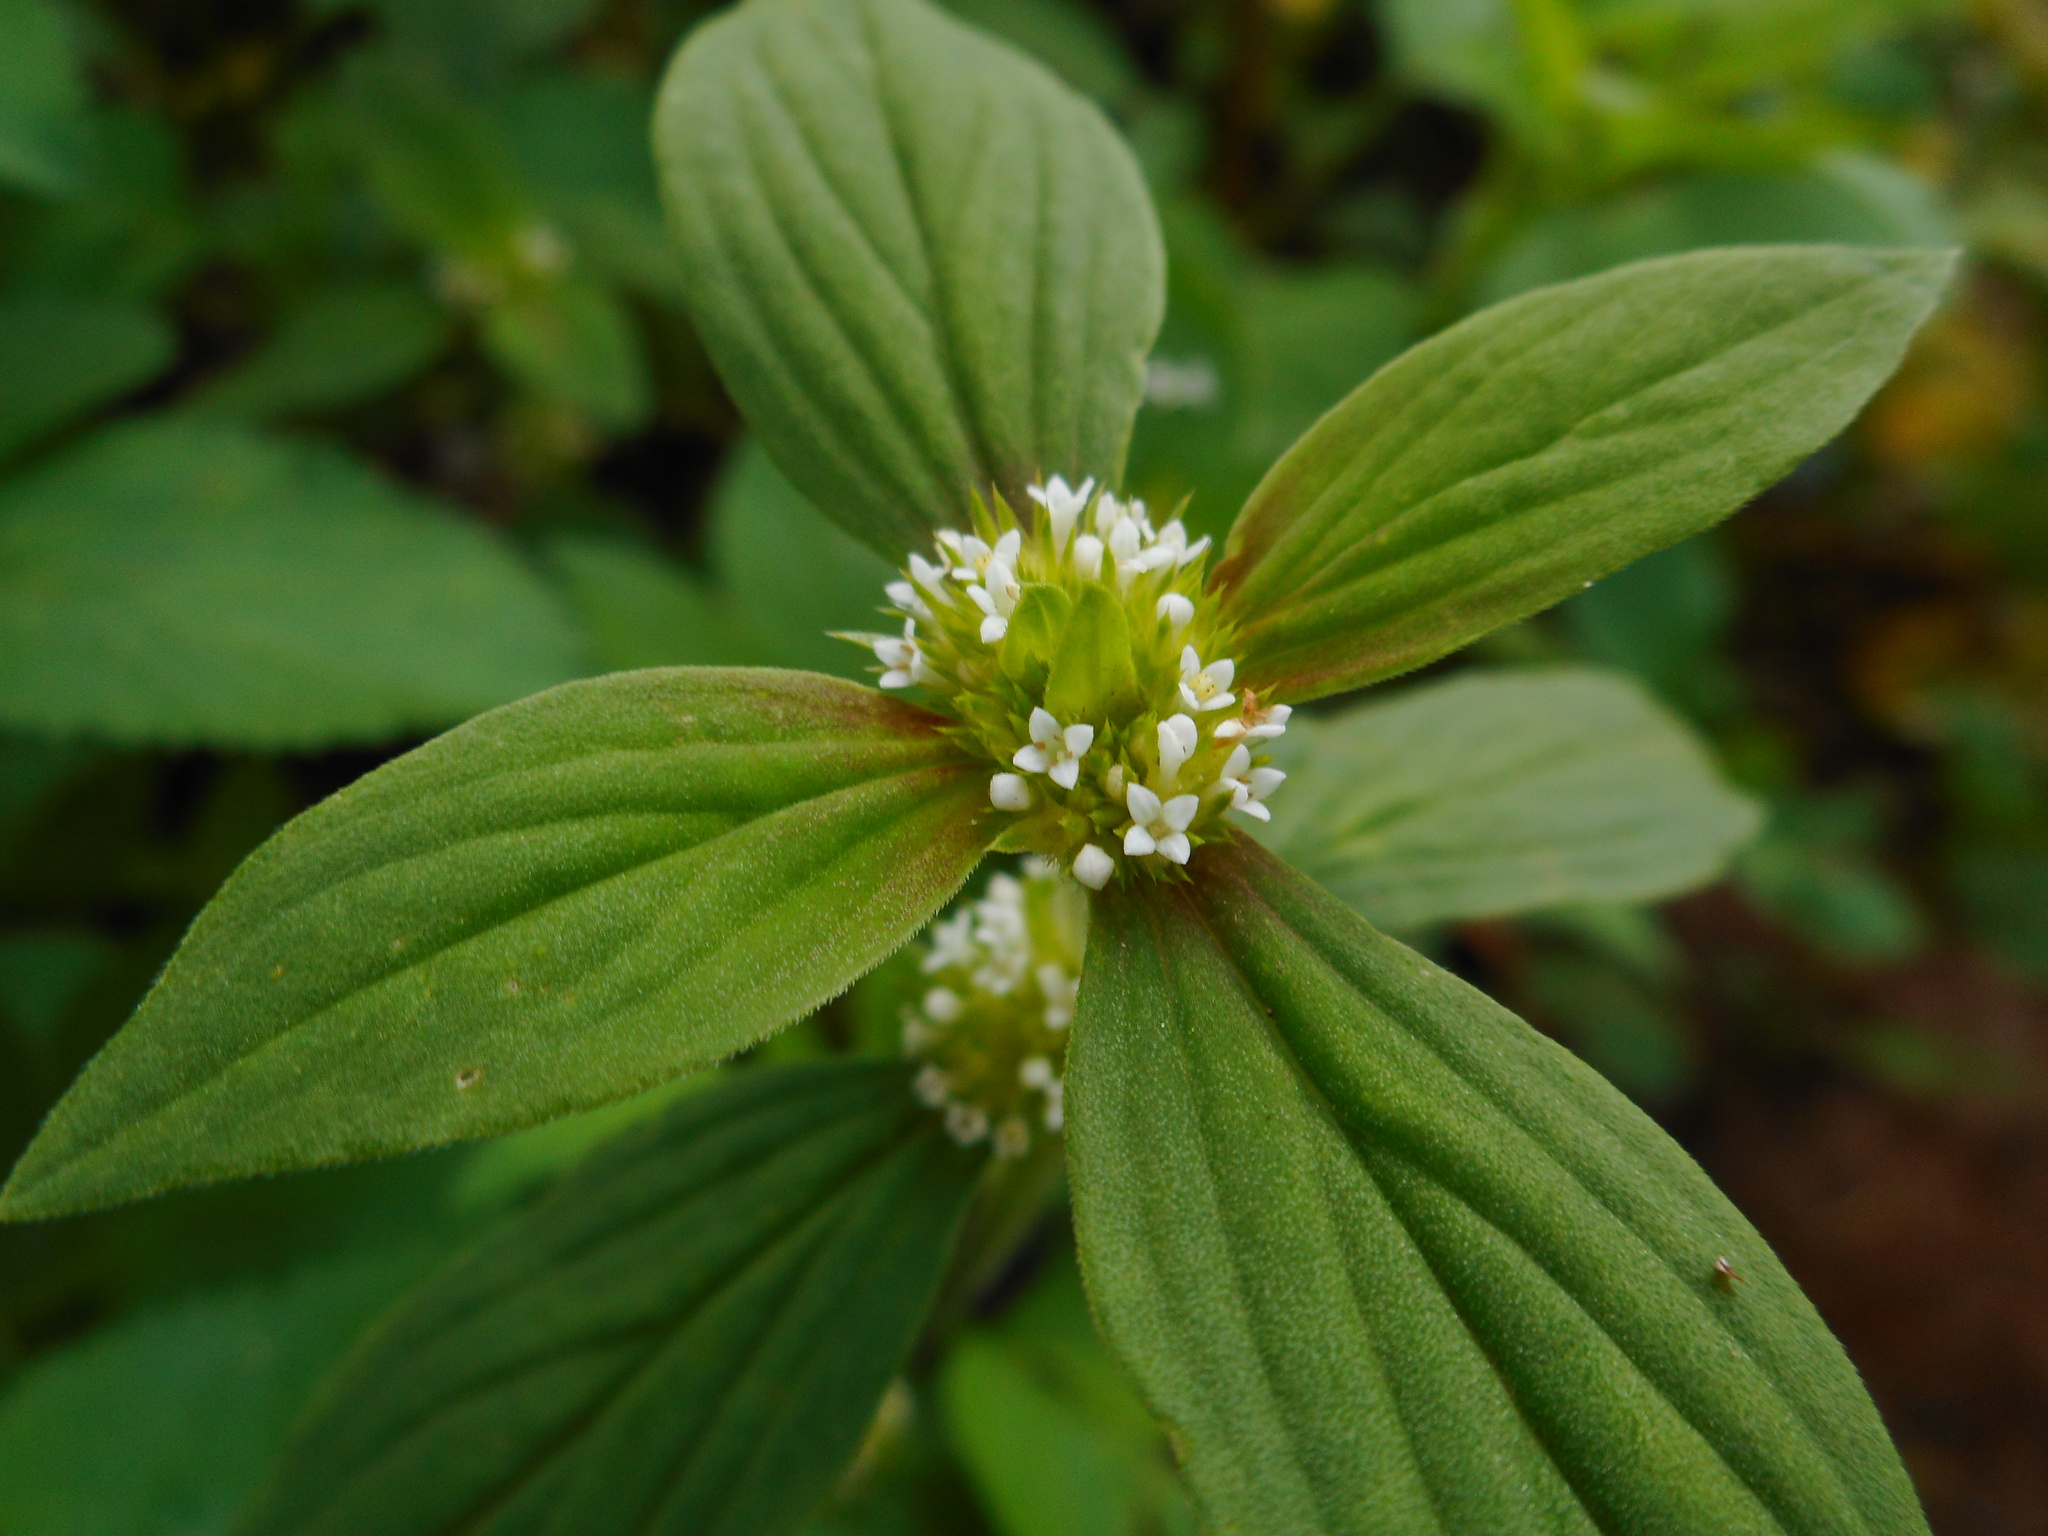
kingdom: Plantae
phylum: Tracheophyta
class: Magnoliopsida
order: Gentianales
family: Rubiaceae
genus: Mitracarpus
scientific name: Mitracarpus hirtus
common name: Tropical girdlepod
